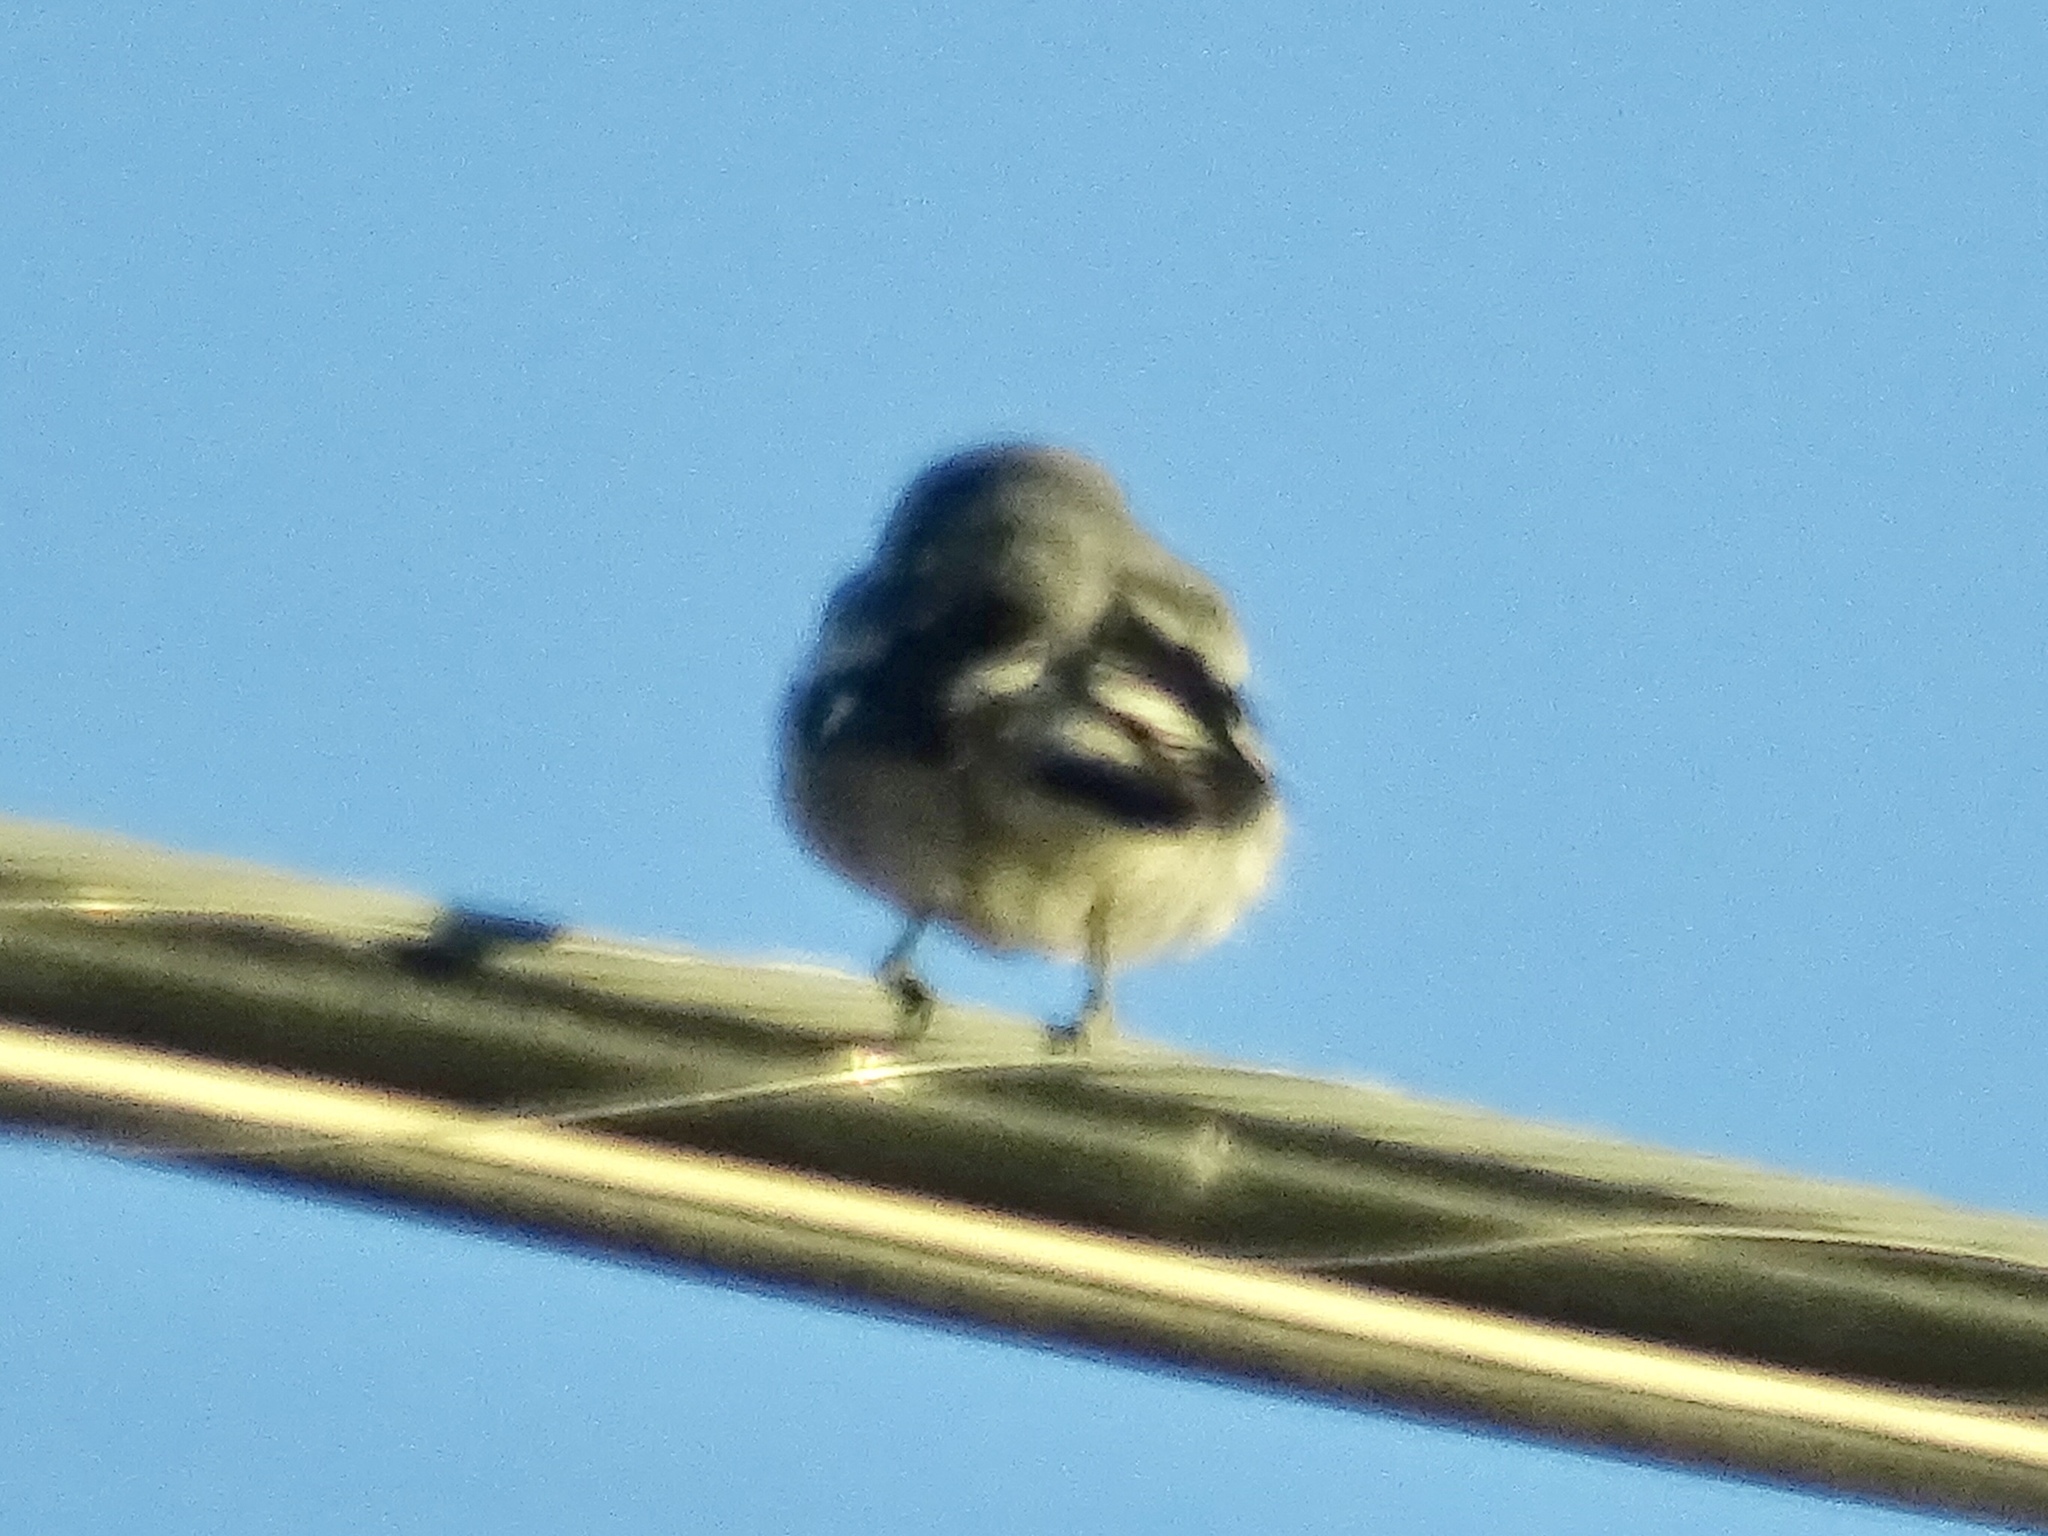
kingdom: Animalia
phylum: Chordata
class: Aves
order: Passeriformes
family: Laniidae
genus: Lanius
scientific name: Lanius ludovicianus
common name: Loggerhead shrike
